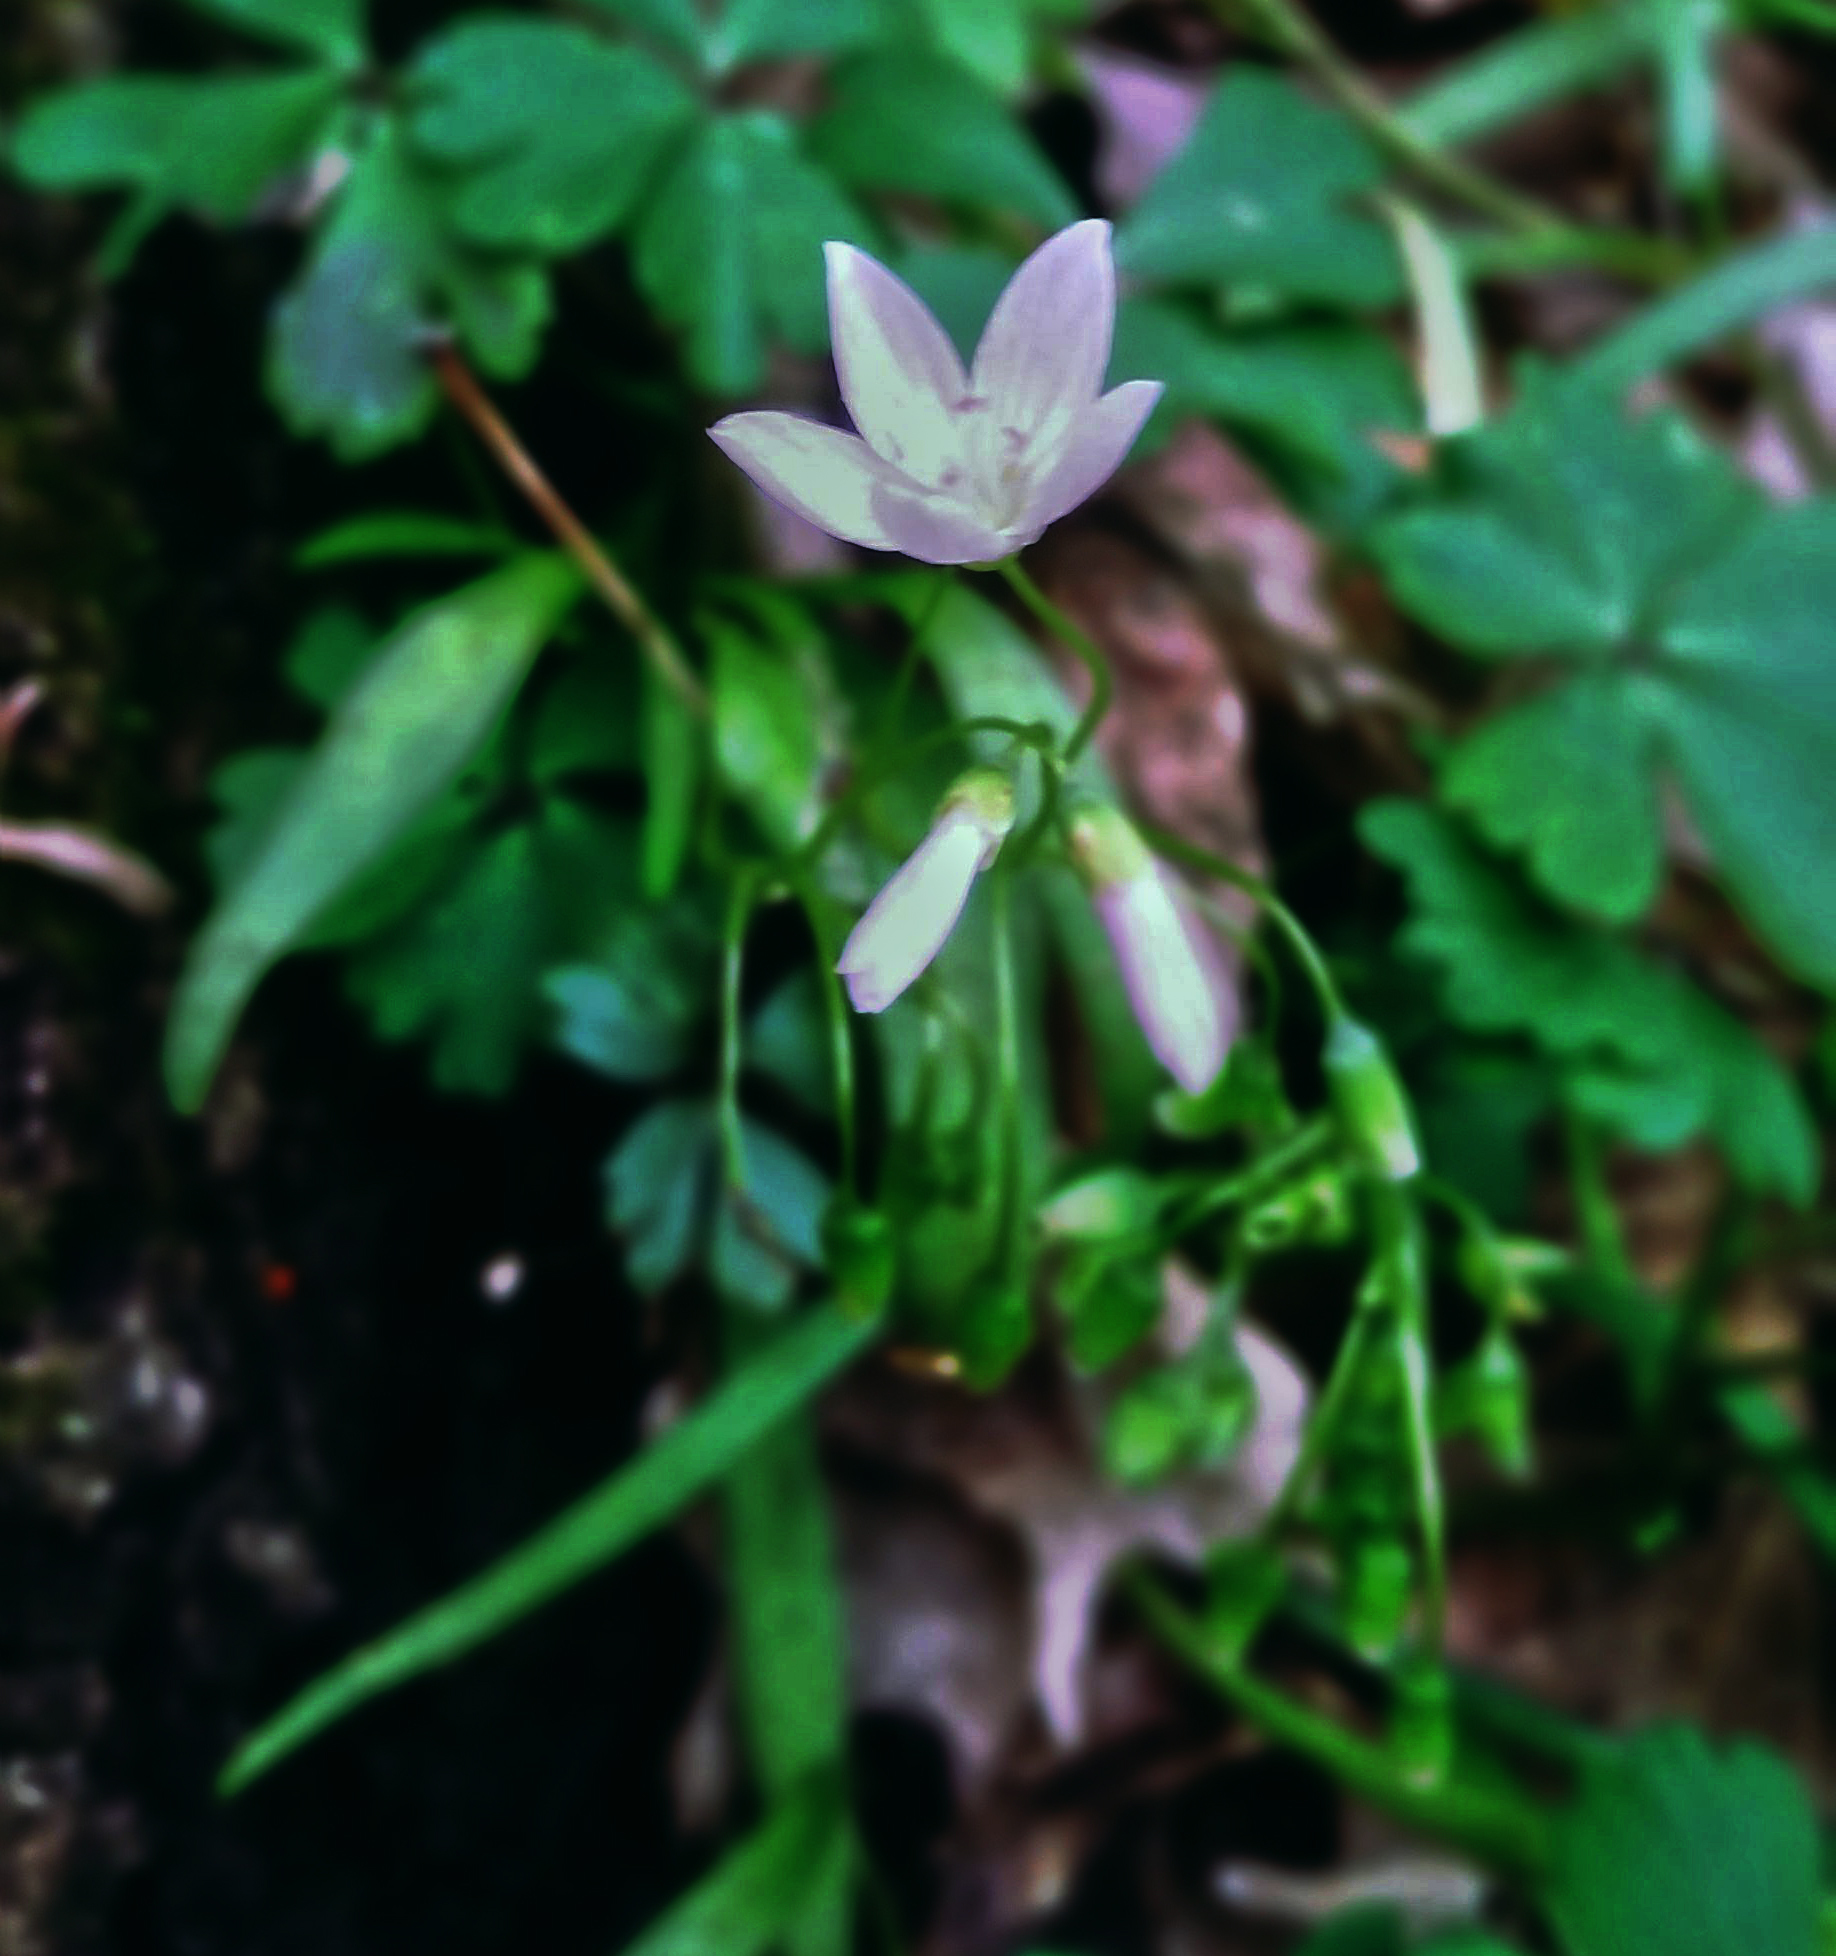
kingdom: Plantae
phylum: Tracheophyta
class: Magnoliopsida
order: Caryophyllales
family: Montiaceae
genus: Claytonia
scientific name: Claytonia virginica
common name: Virginia springbeauty
